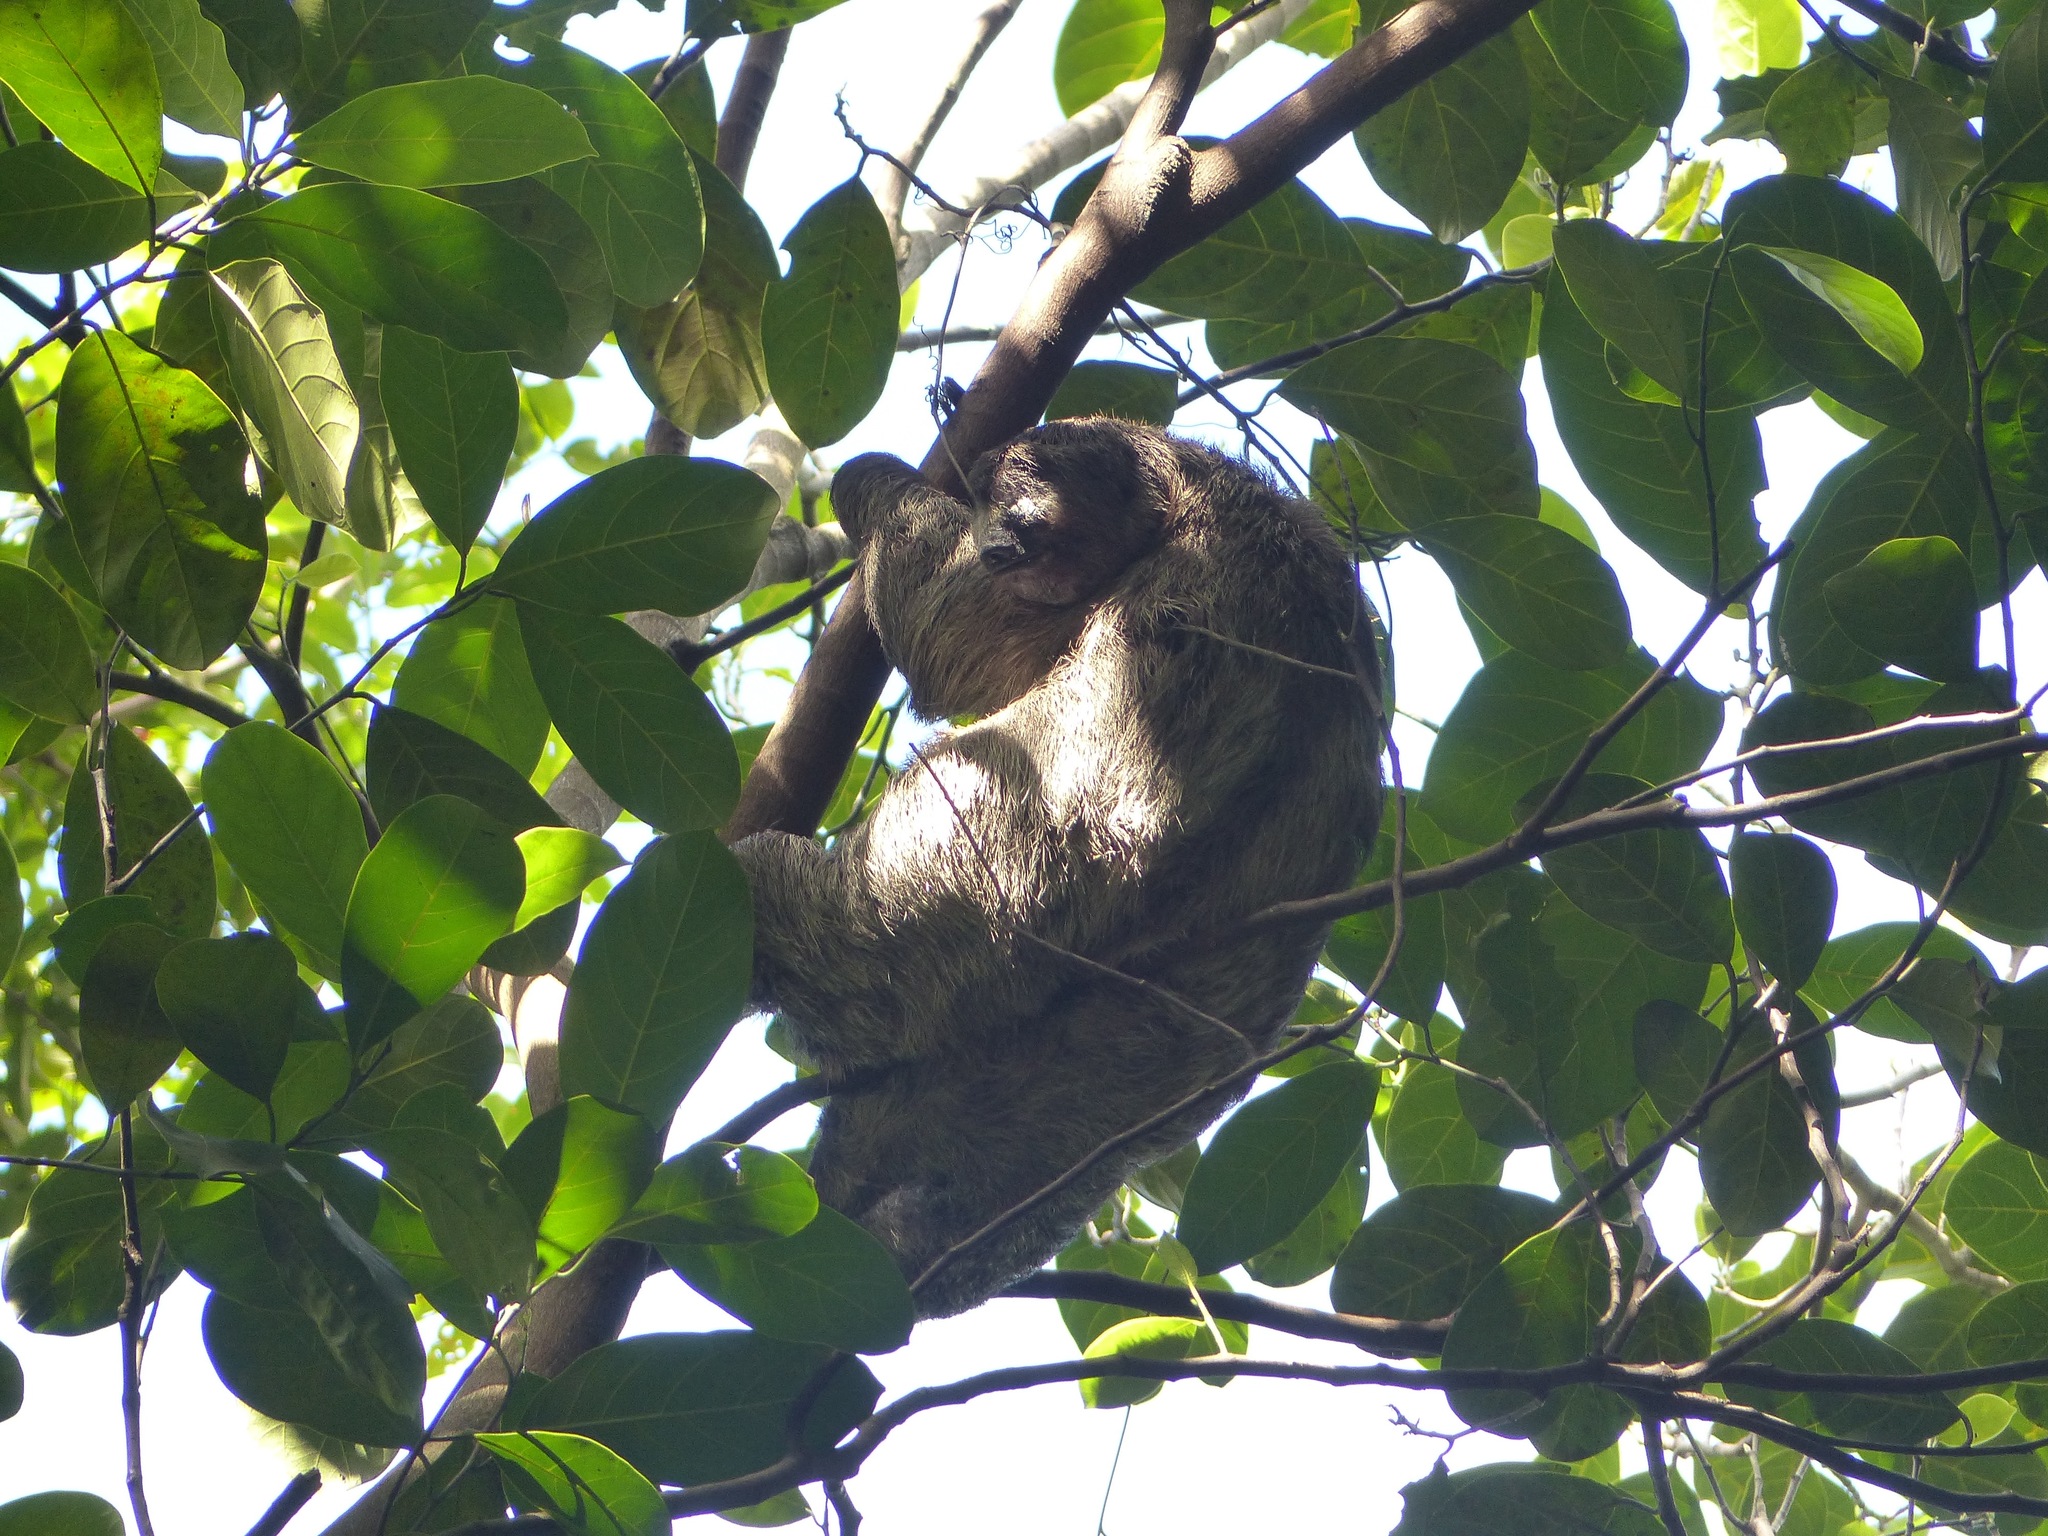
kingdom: Animalia
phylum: Chordata
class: Mammalia
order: Pilosa
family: Bradypodidae
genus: Bradypus
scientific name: Bradypus variegatus
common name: Brown-throated three-toed sloth
